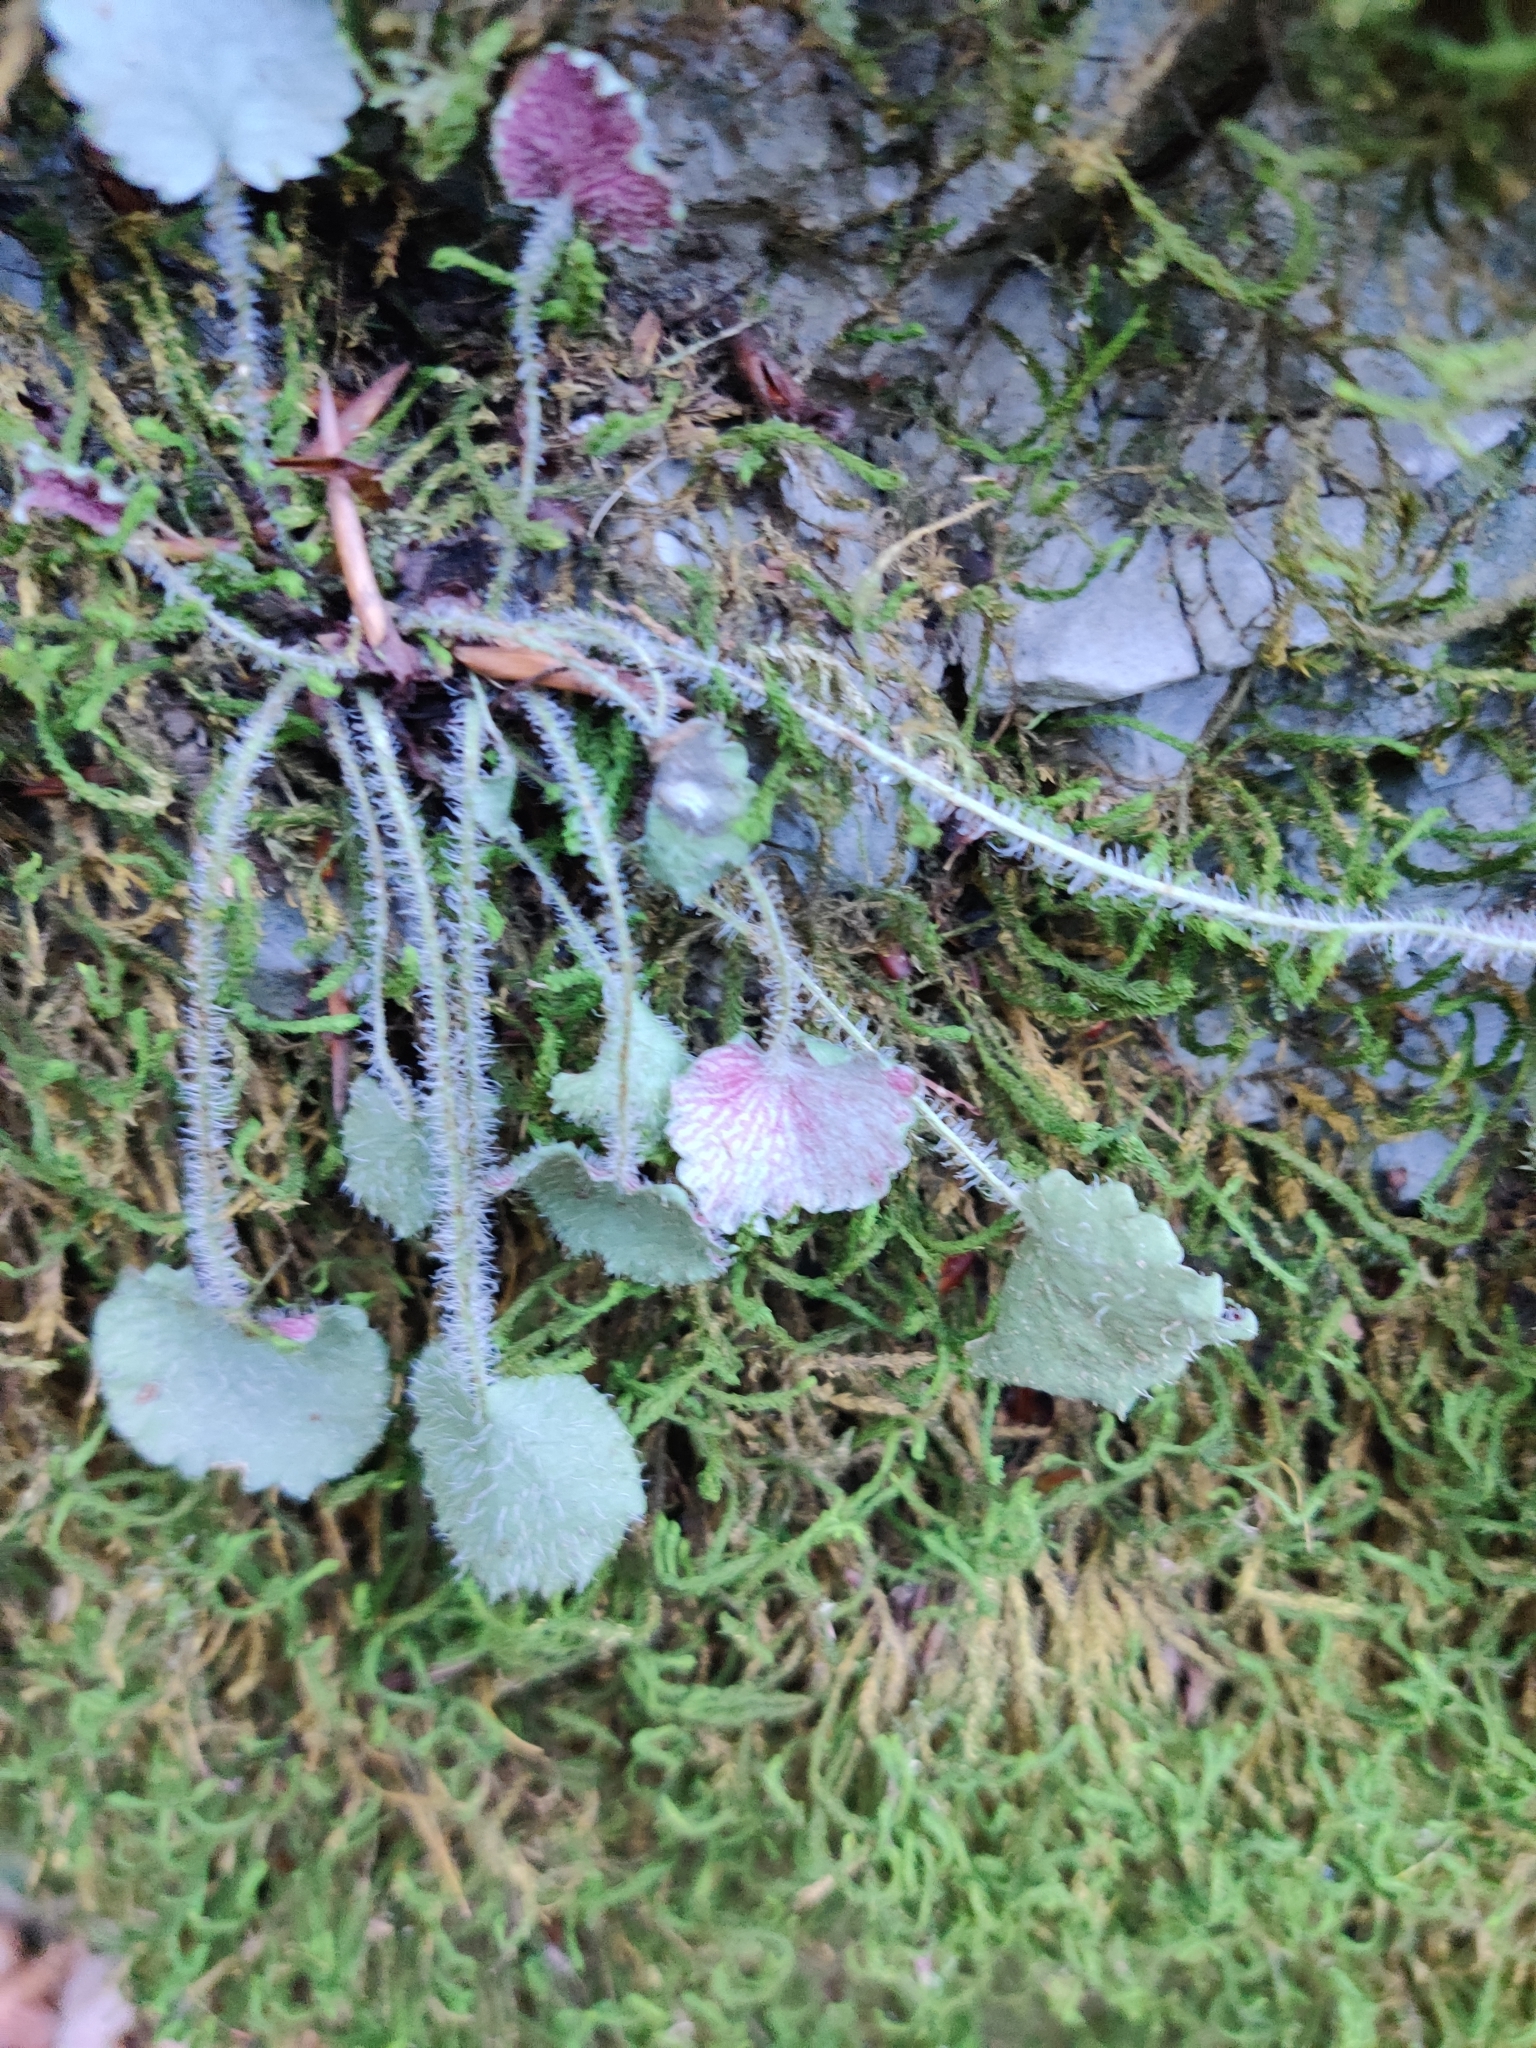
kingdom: Plantae
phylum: Tracheophyta
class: Magnoliopsida
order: Saxifragales
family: Saxifragaceae
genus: Saxifraga
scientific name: Saxifraga hirsuta
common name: Kidney saxifrage
